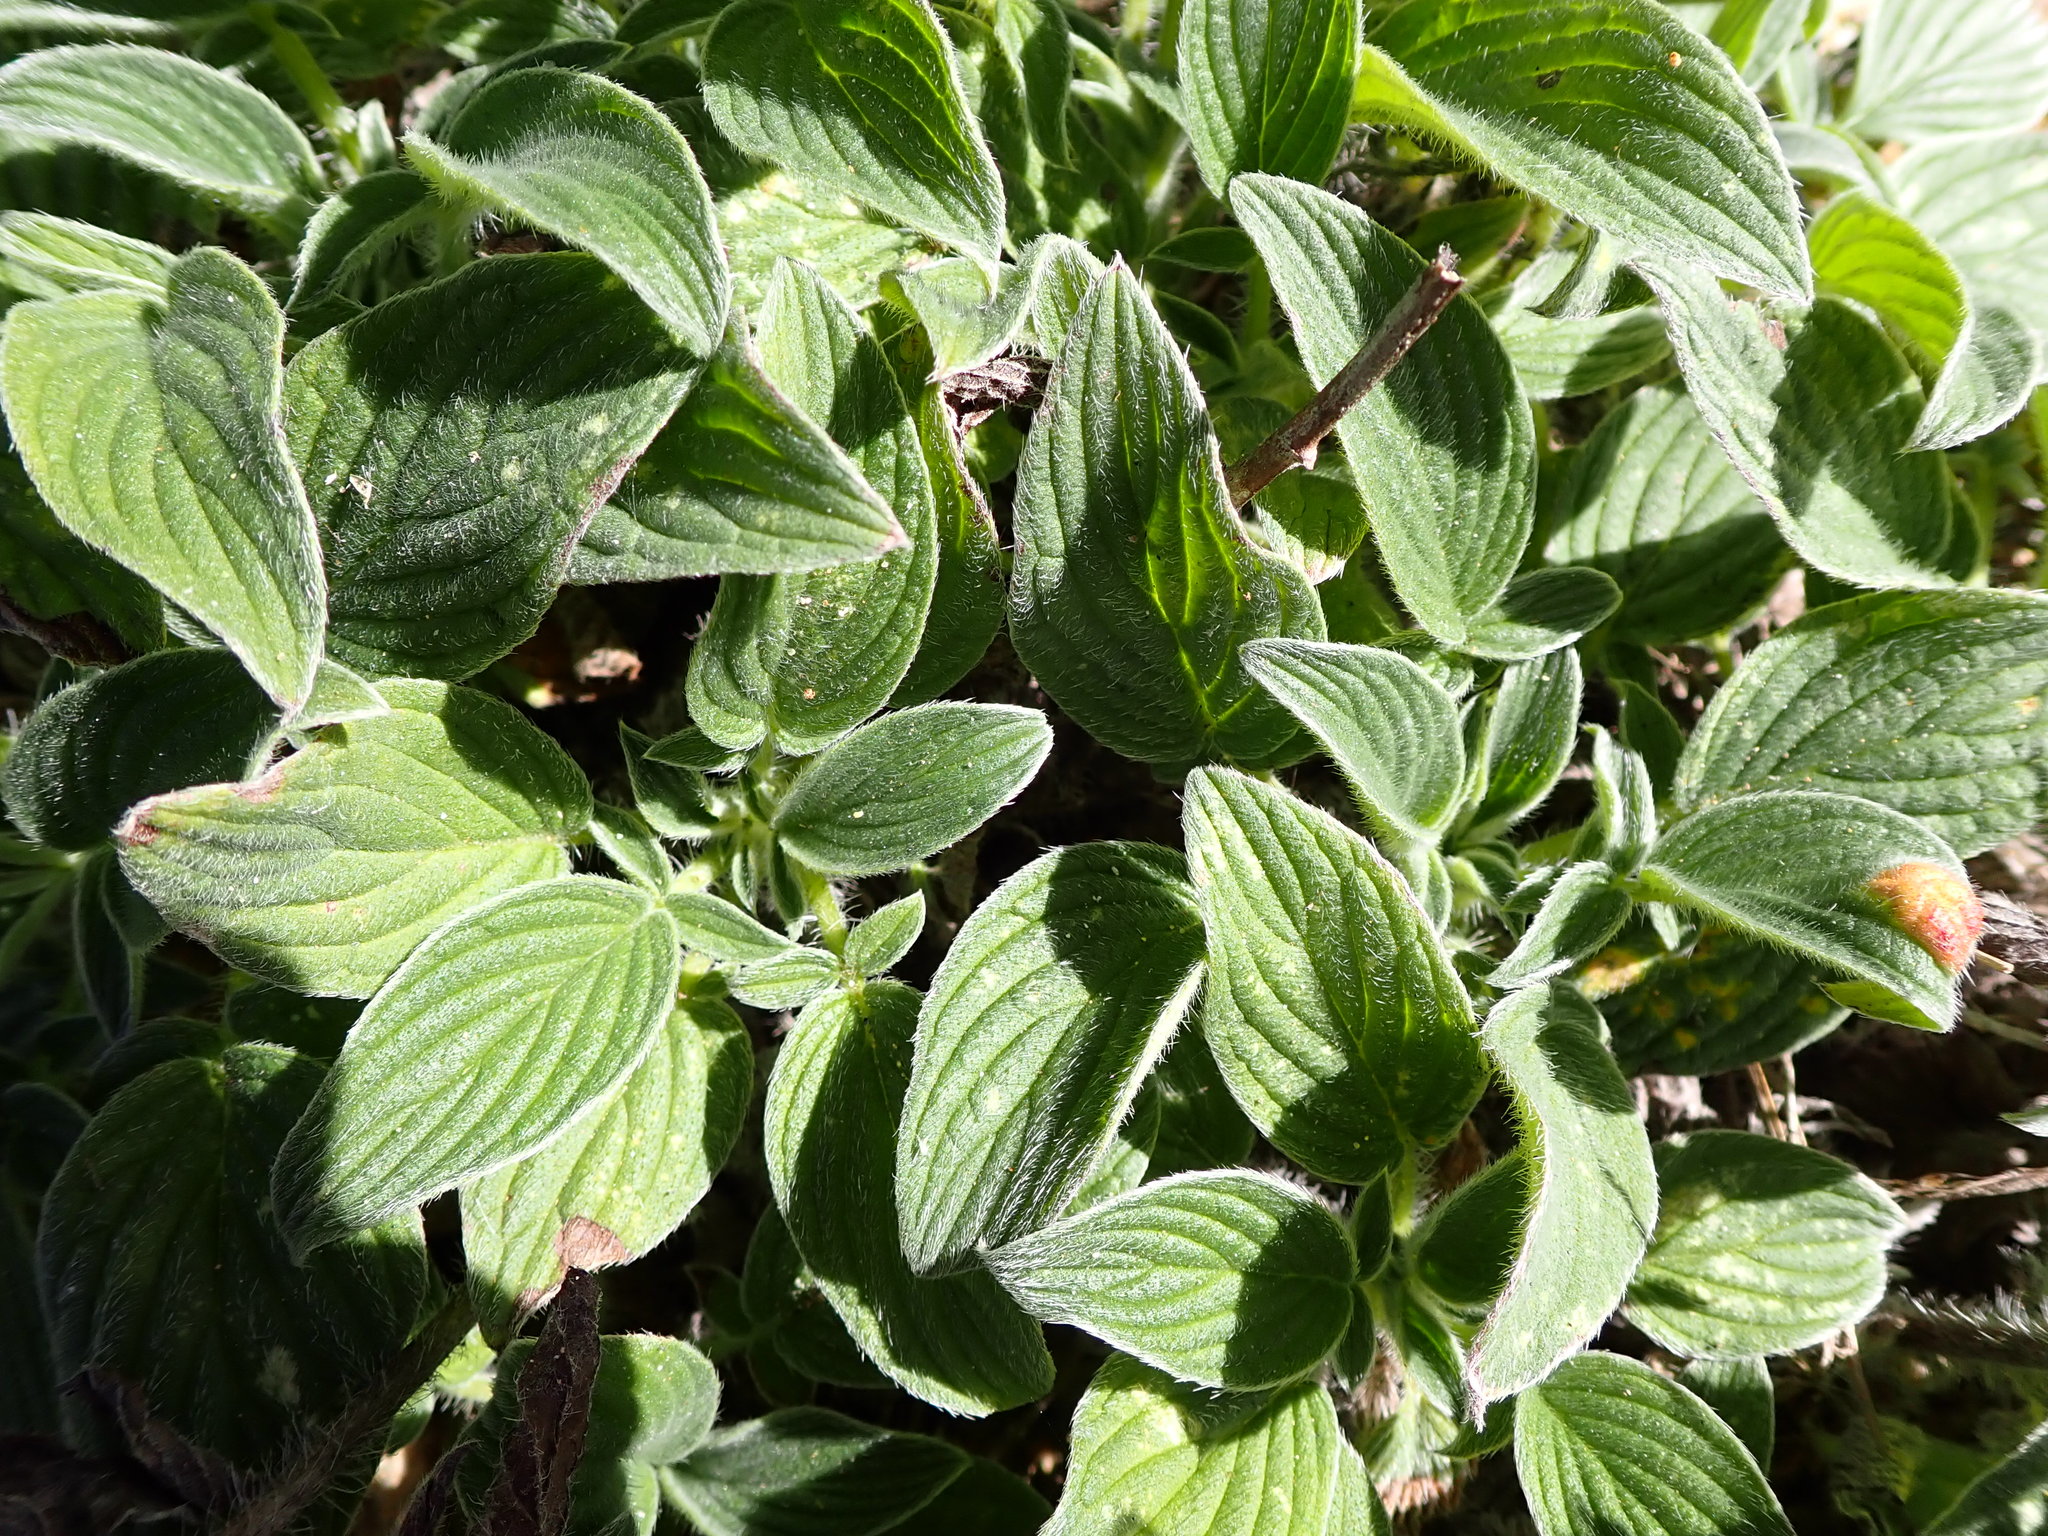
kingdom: Plantae
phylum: Tracheophyta
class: Magnoliopsida
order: Boraginales
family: Hydrophyllaceae
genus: Phacelia
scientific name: Phacelia californica
